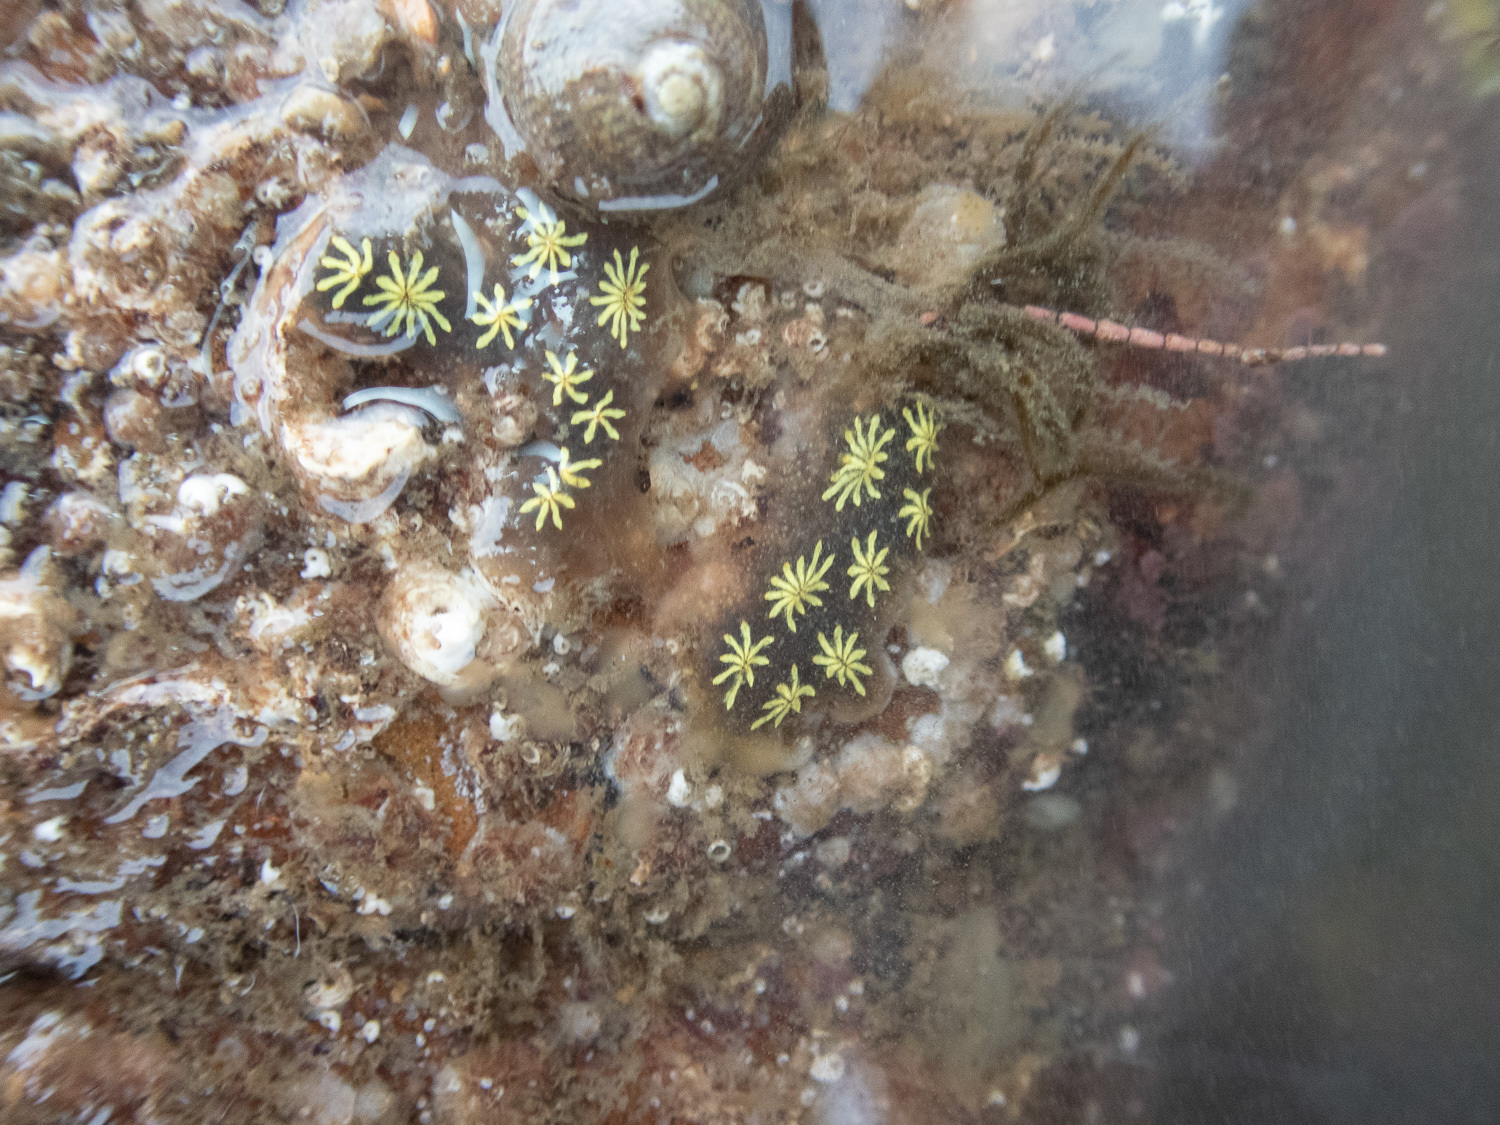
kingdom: Animalia
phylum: Chordata
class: Ascidiacea
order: Stolidobranchia
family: Styelidae
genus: Botryllus
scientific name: Botryllus schlosseri
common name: Golden star tunicate
